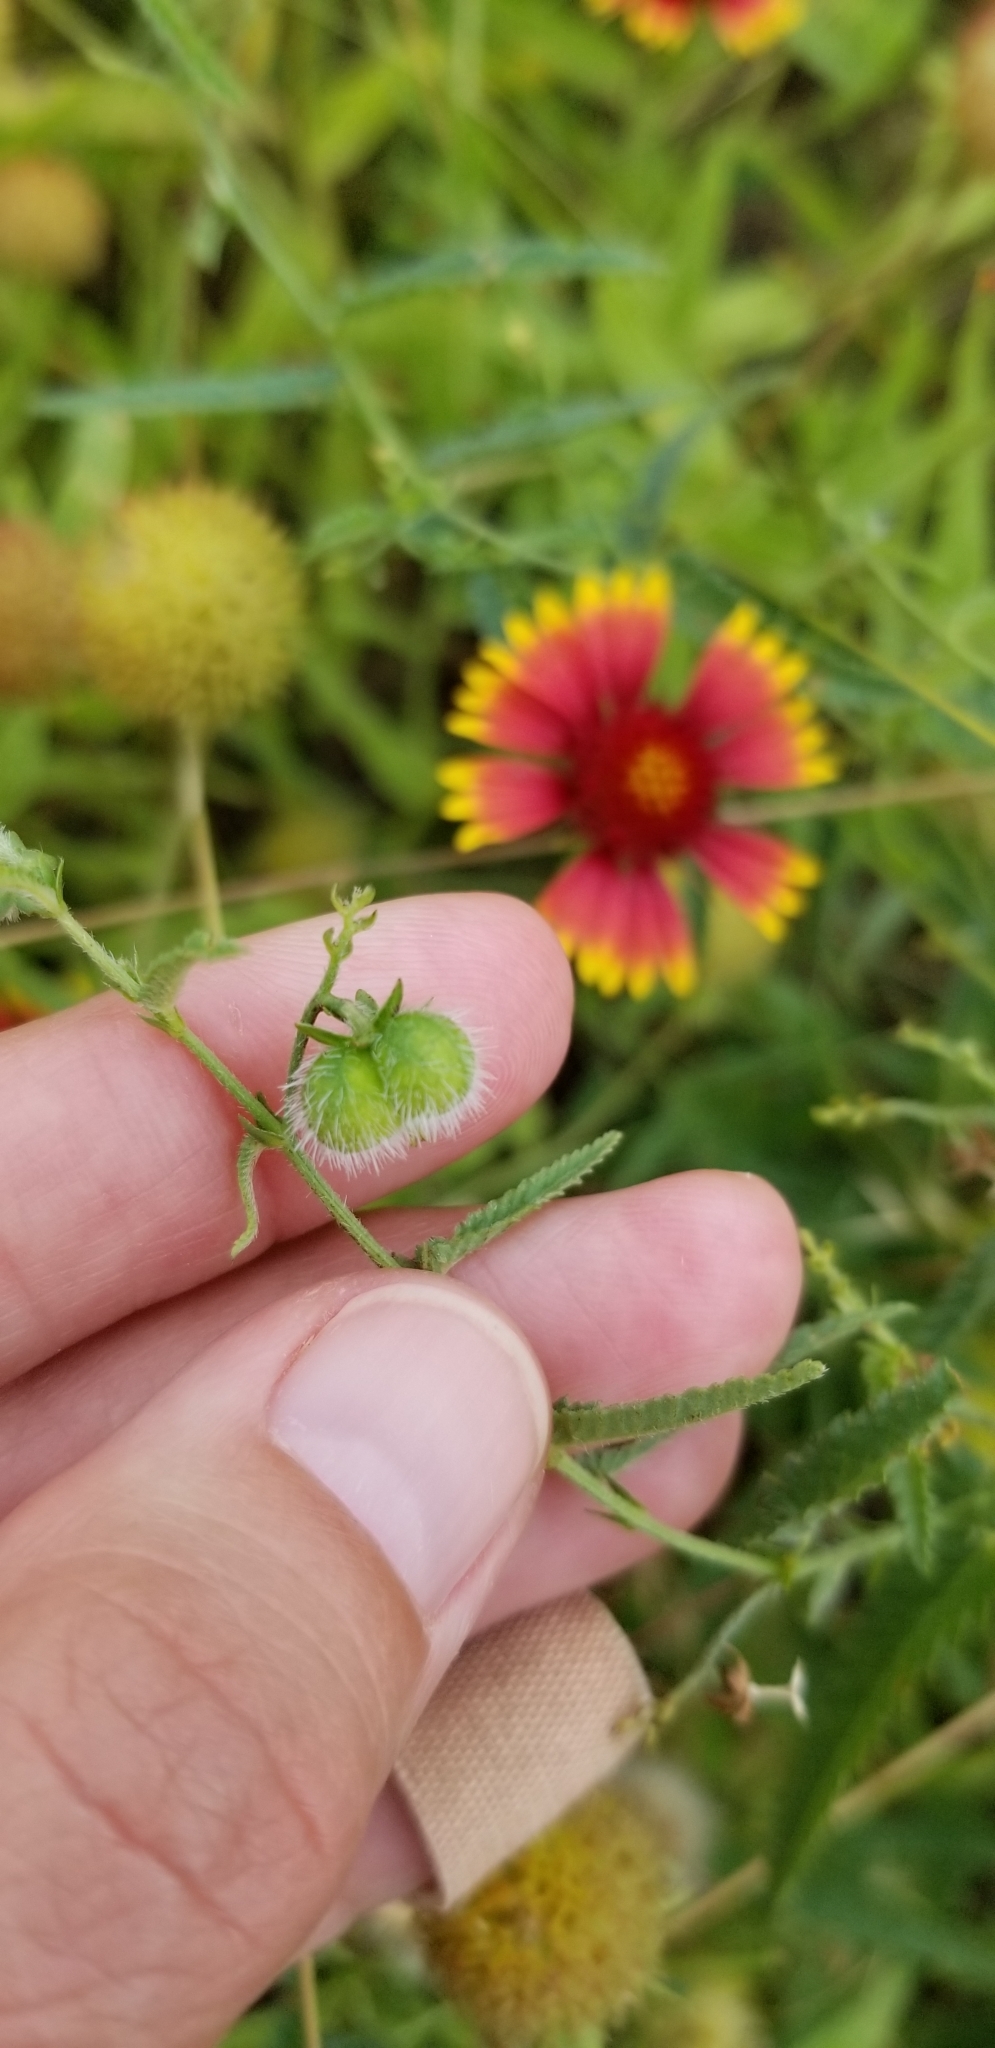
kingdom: Plantae
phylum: Tracheophyta
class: Magnoliopsida
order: Malpighiales
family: Euphorbiaceae
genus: Tragia
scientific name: Tragia ramosa
